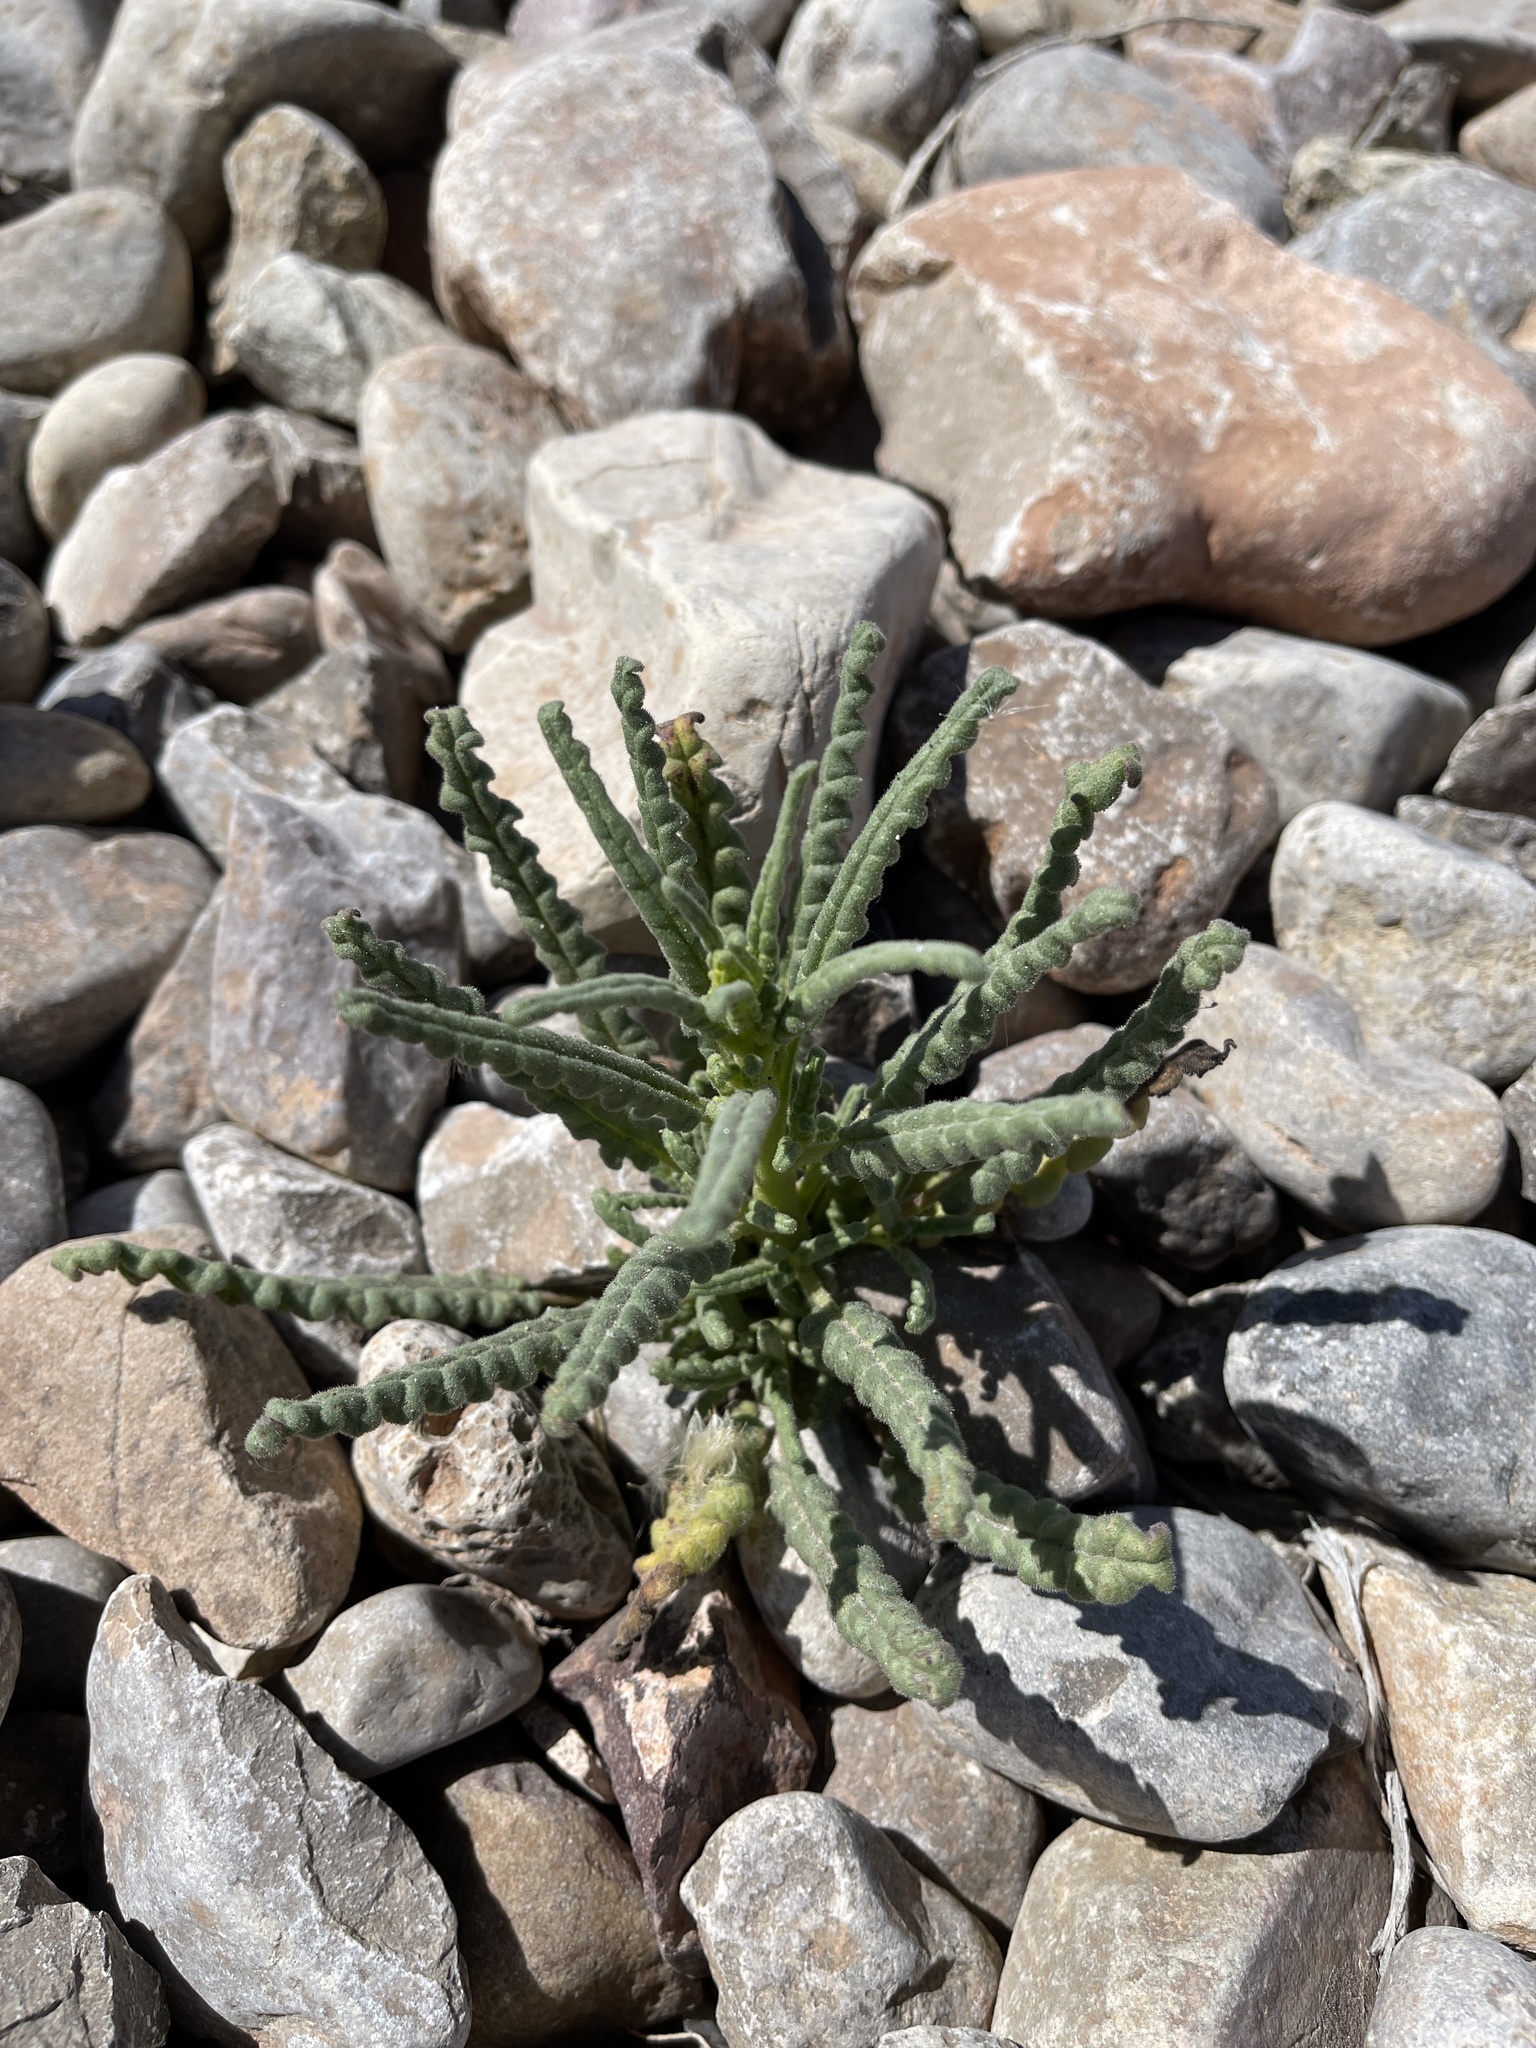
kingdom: Plantae
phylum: Tracheophyta
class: Magnoliopsida
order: Boraginales
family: Hydrophyllaceae
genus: Phacelia
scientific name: Phacelia integrifolia
